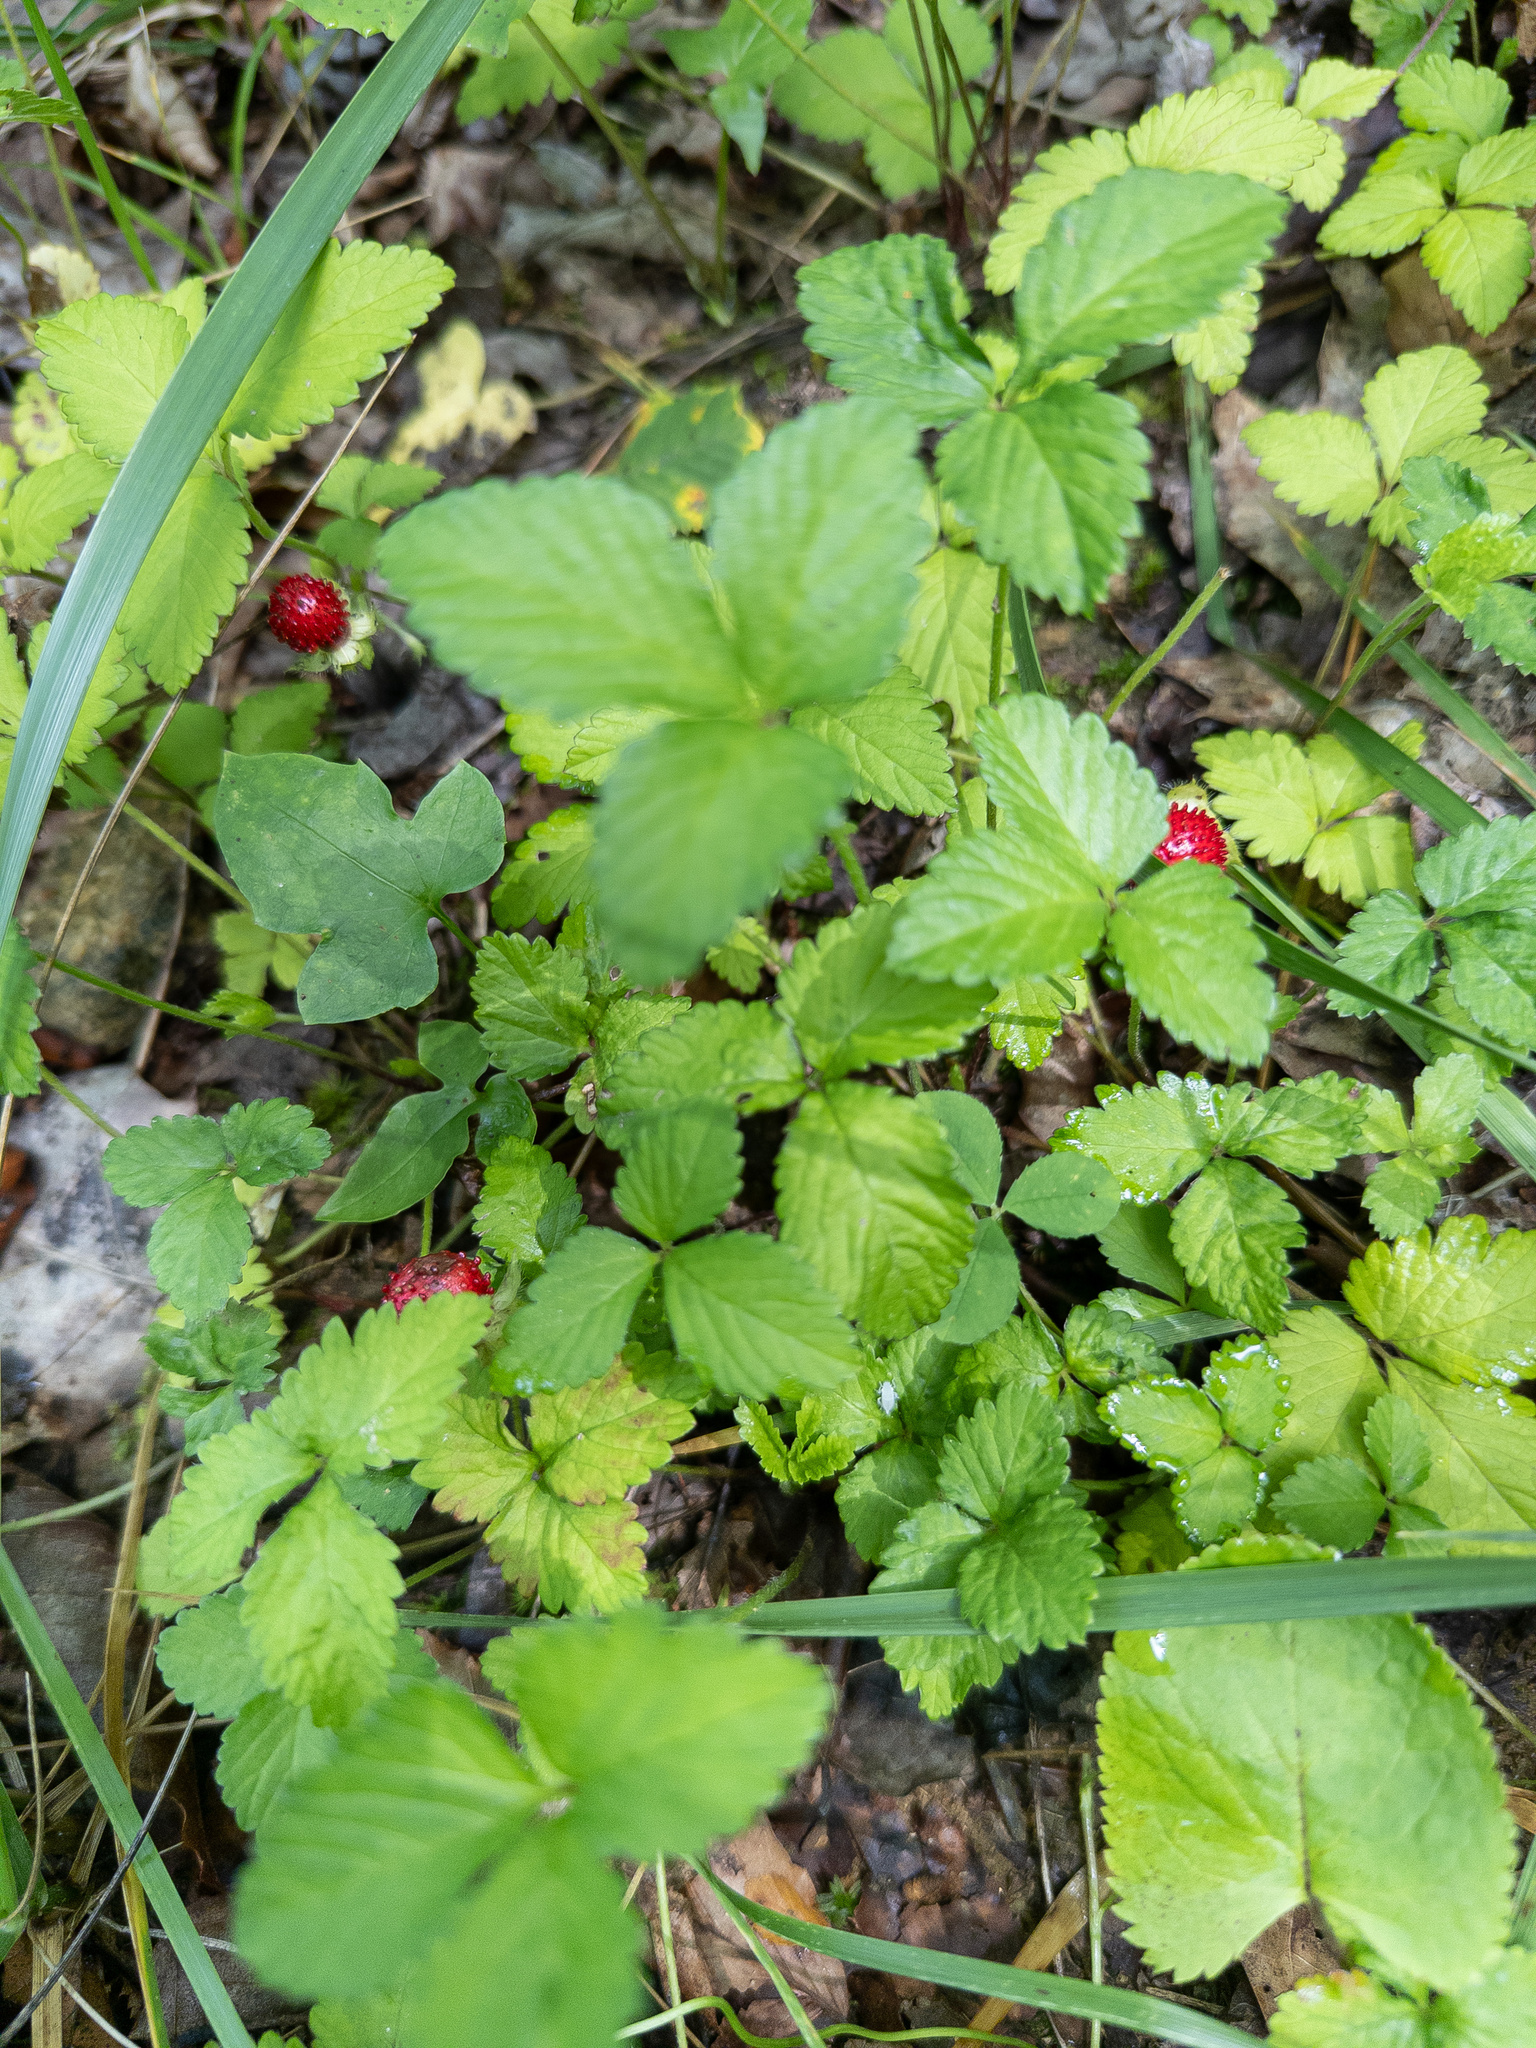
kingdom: Plantae
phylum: Tracheophyta
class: Magnoliopsida
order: Rosales
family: Rosaceae
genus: Potentilla
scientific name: Potentilla indica
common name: Yellow-flowered strawberry
